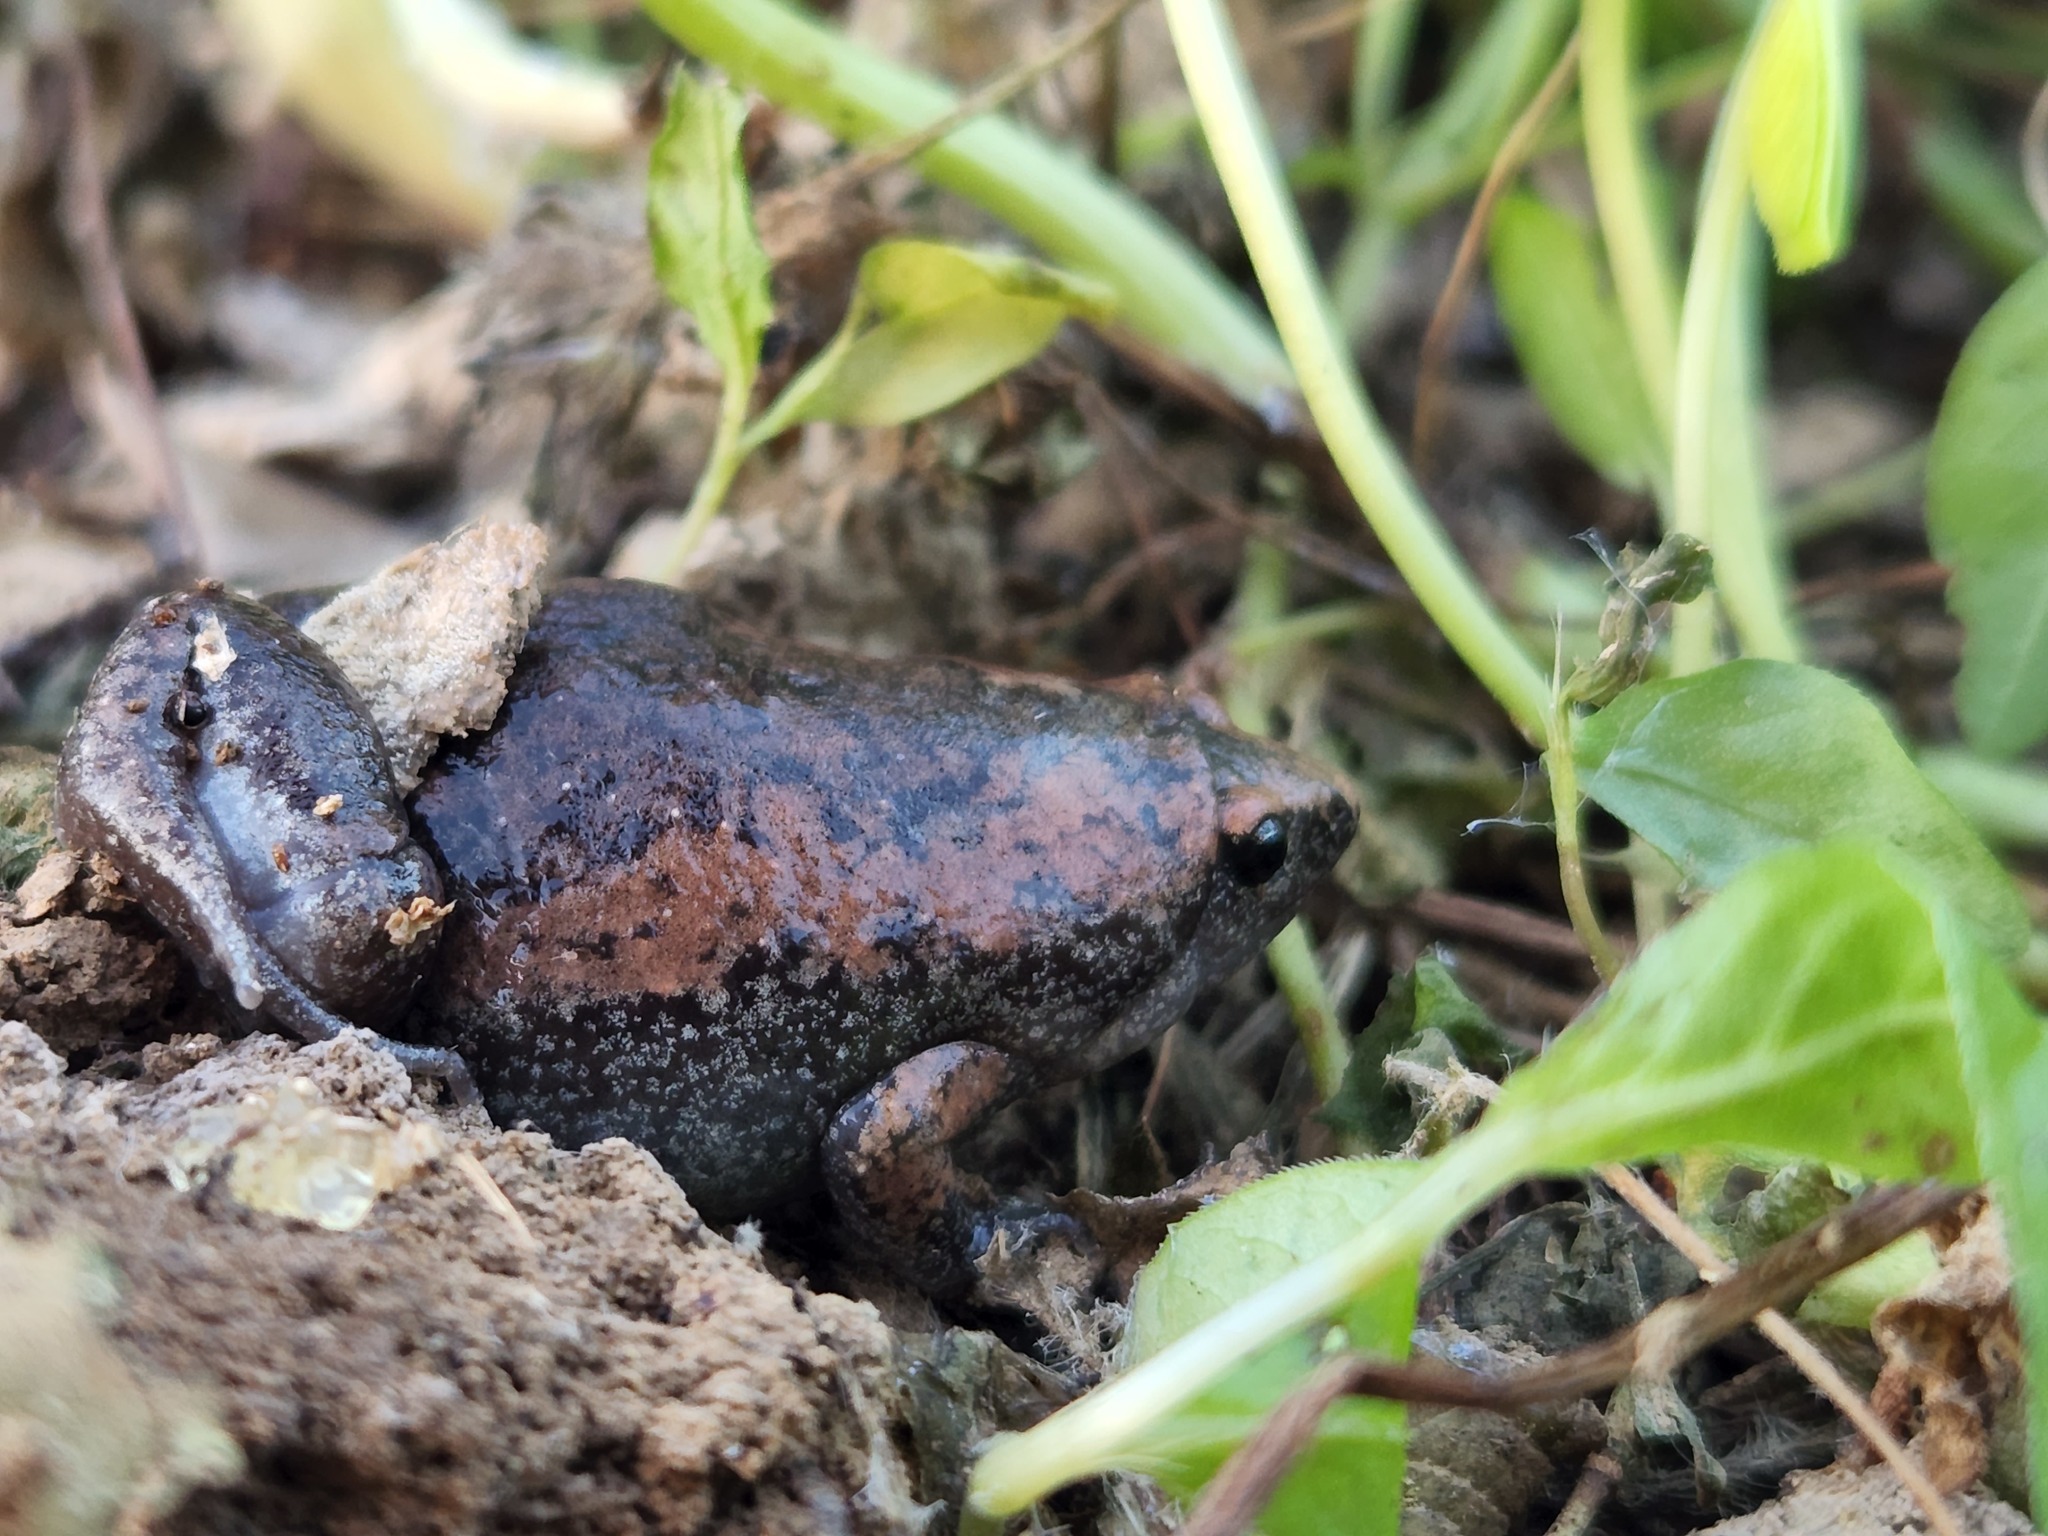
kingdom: Animalia
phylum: Chordata
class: Amphibia
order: Anura
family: Microhylidae
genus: Gastrophryne
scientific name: Gastrophryne carolinensis
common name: Eastern narrowmouth toad
